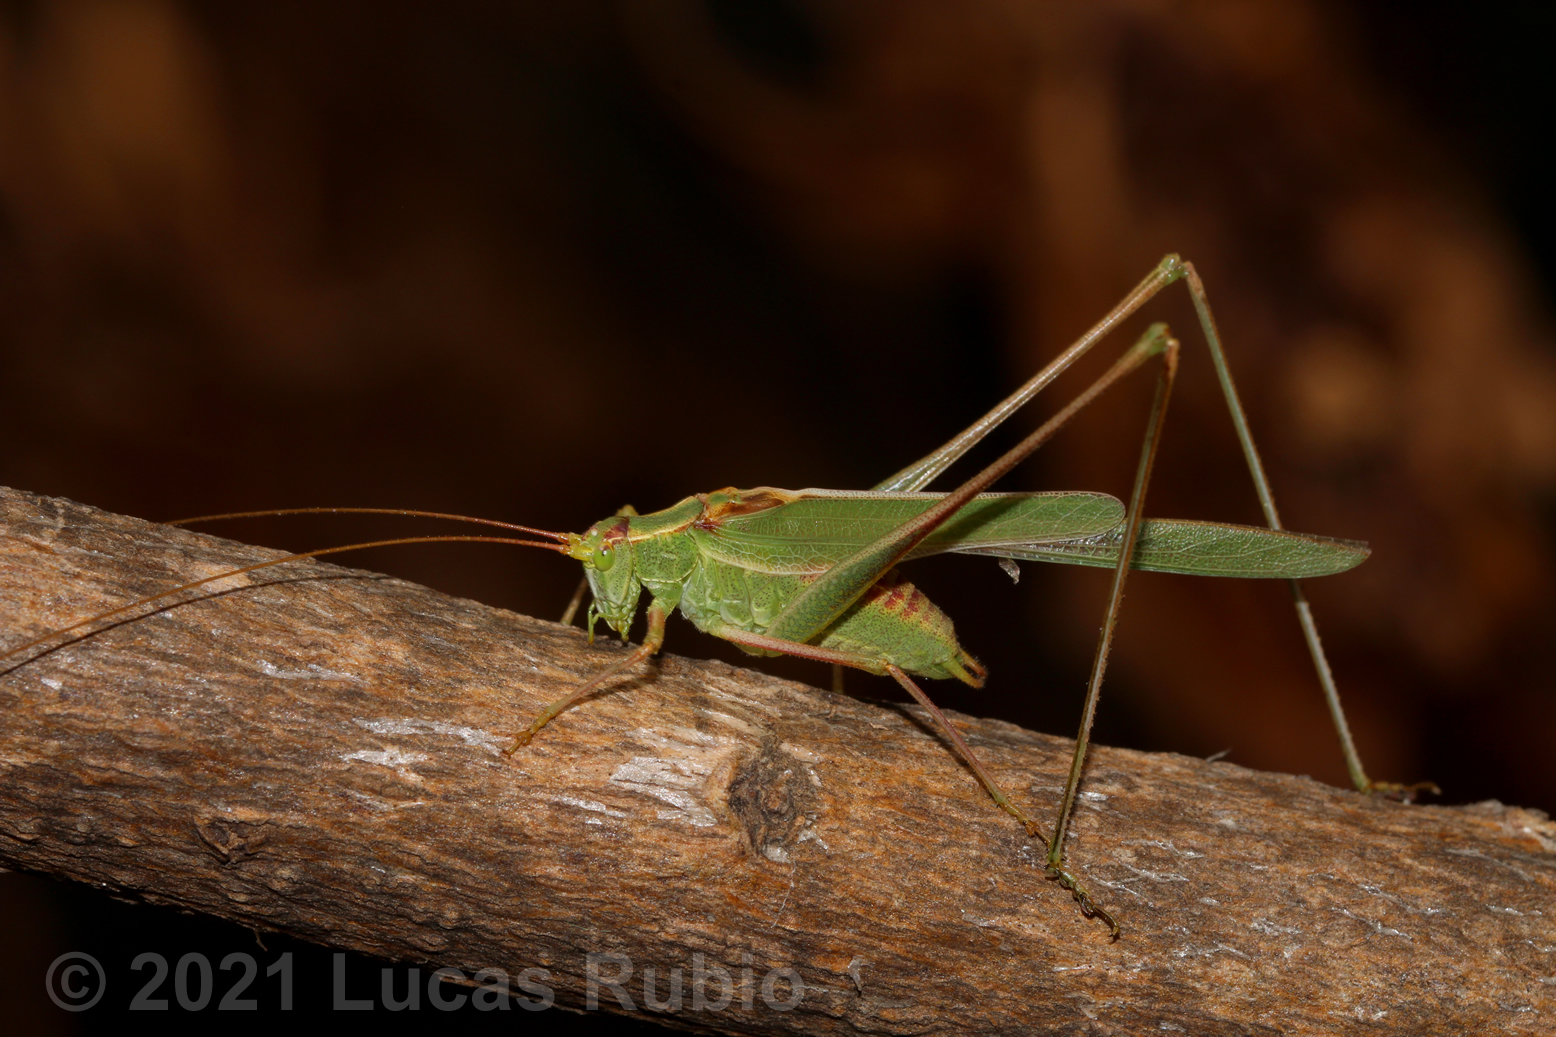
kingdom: Animalia
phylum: Arthropoda
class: Insecta
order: Orthoptera
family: Tettigoniidae
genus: Burgilis
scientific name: Burgilis curta
